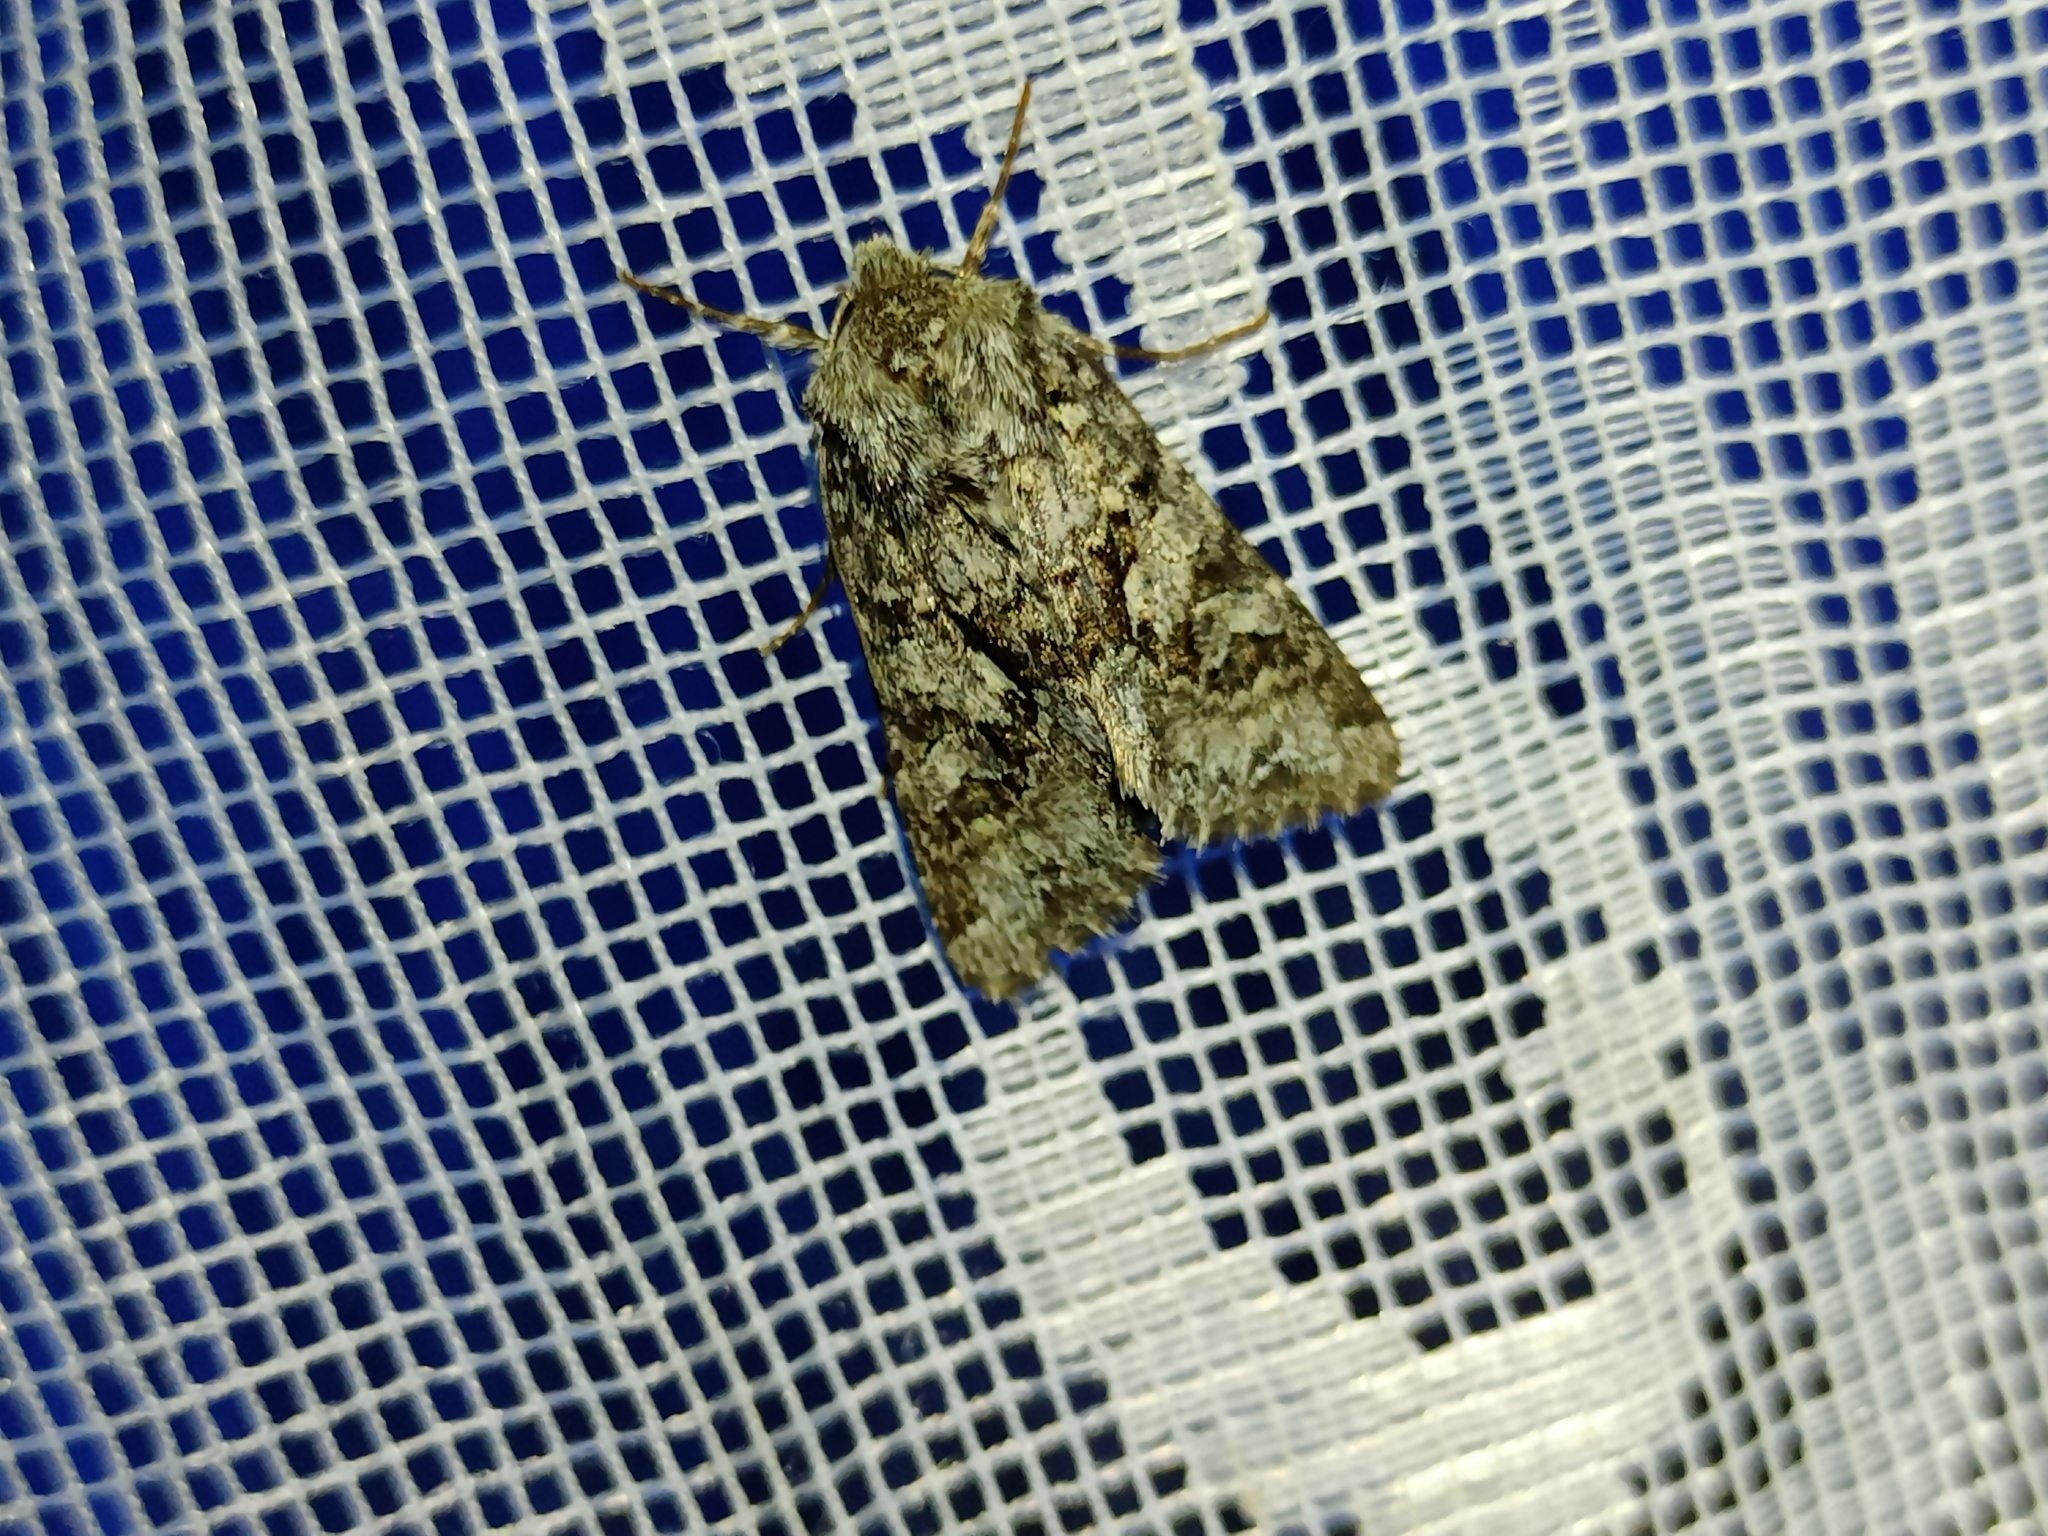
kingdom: Animalia
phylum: Arthropoda
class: Insecta
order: Lepidoptera
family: Noctuidae
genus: Hada
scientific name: Hada plebeja
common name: Shears
